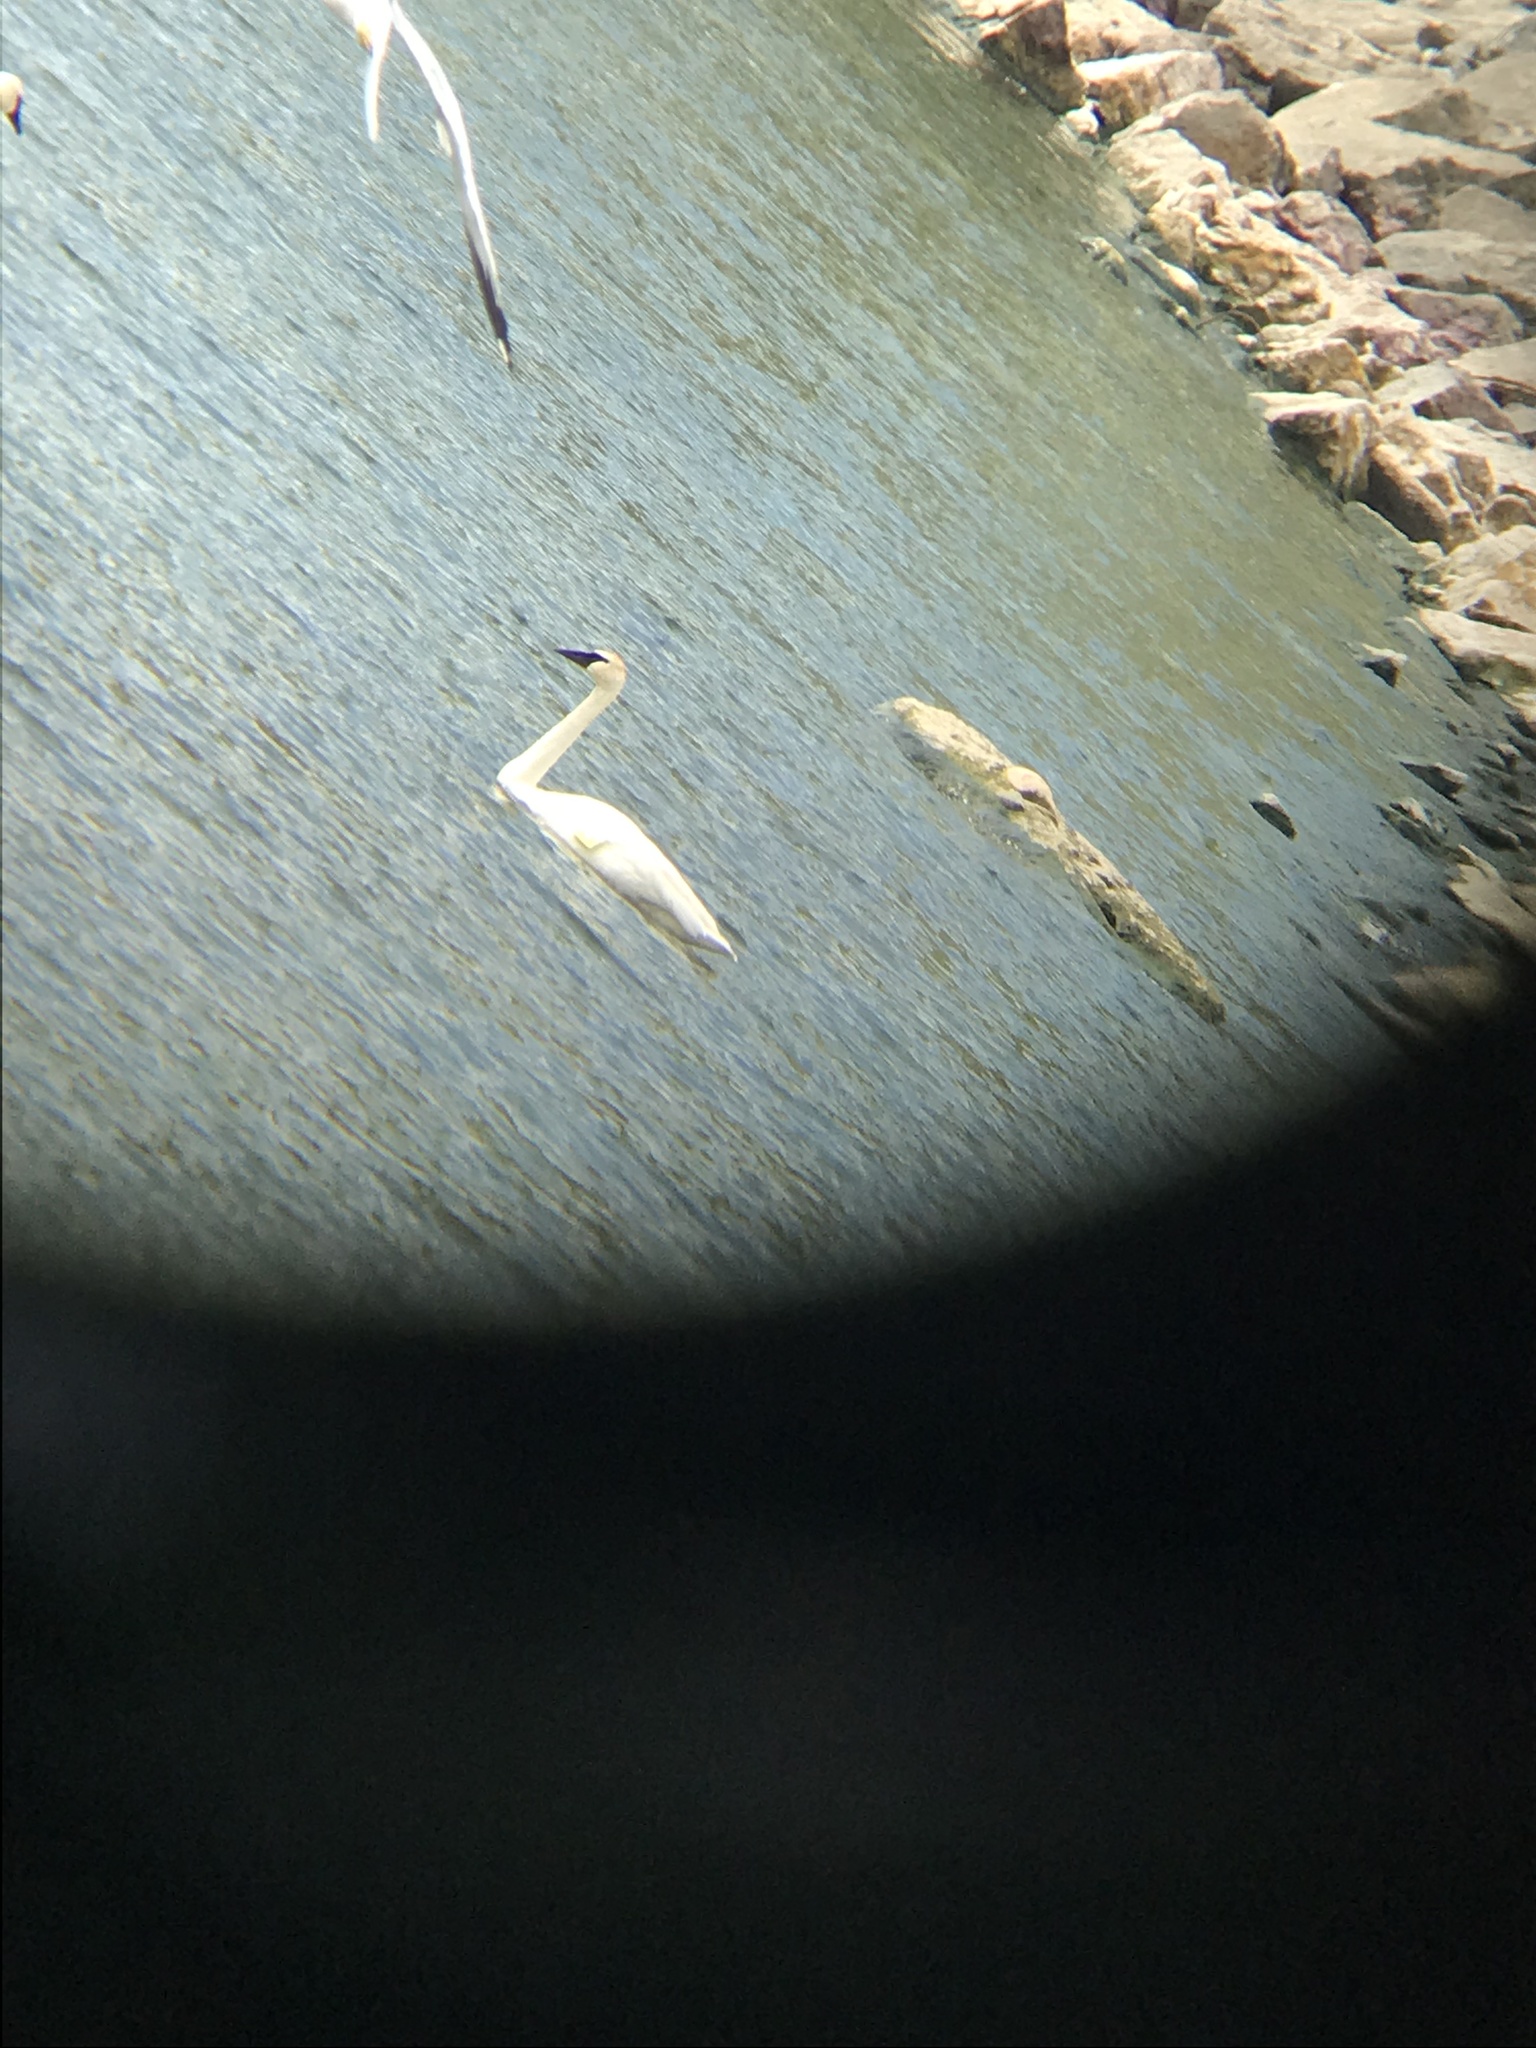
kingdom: Animalia
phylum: Chordata
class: Aves
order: Anseriformes
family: Anatidae
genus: Cygnus
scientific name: Cygnus buccinator
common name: Trumpeter swan
